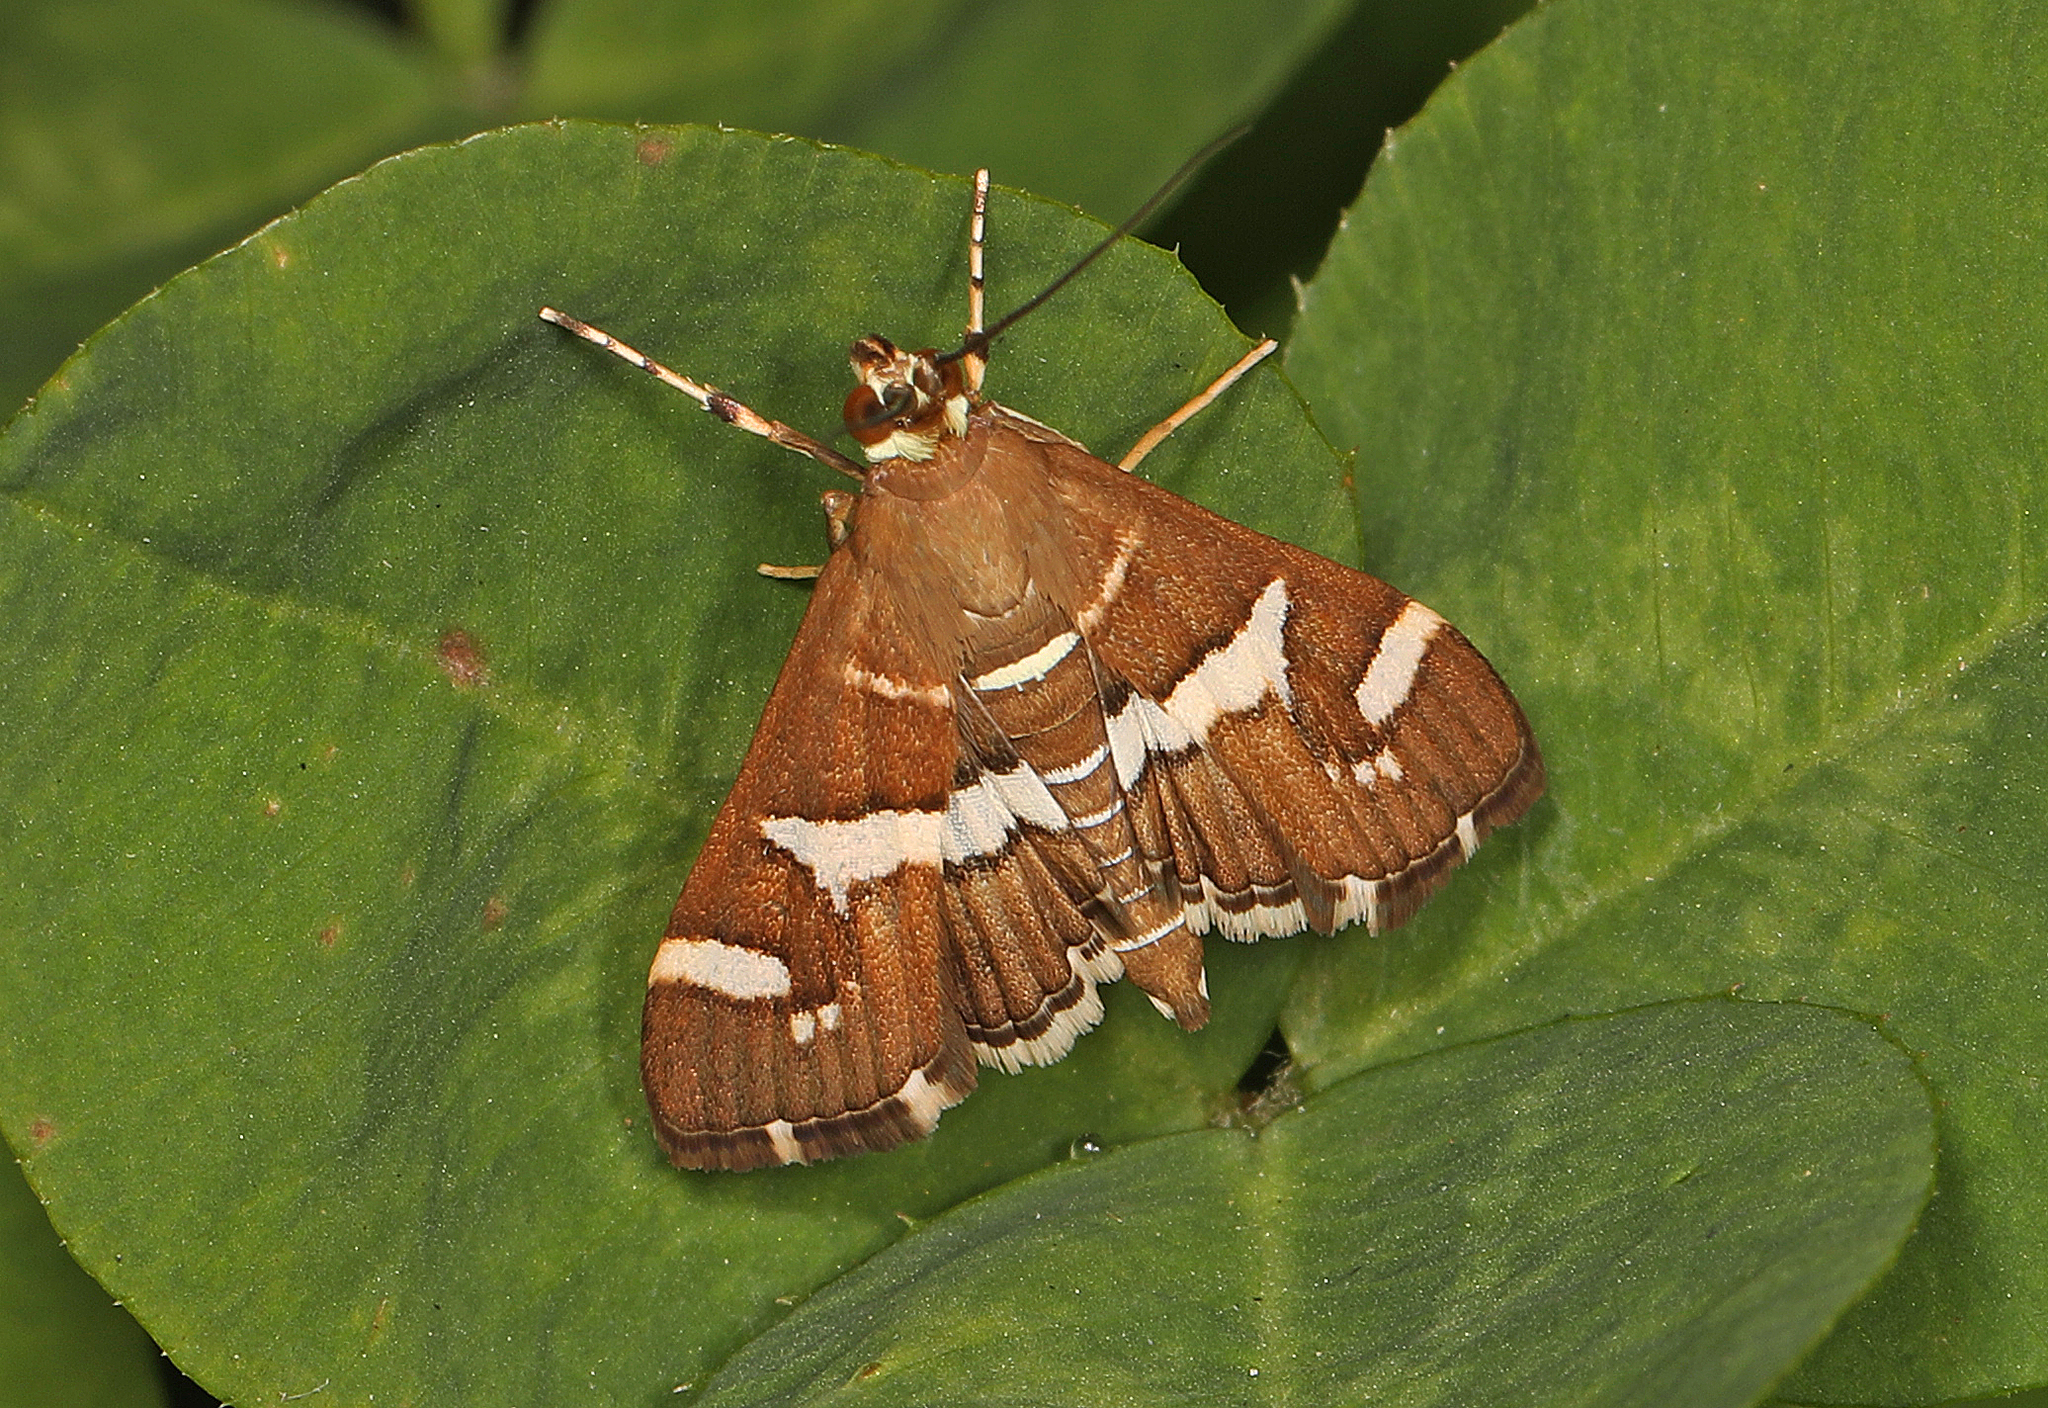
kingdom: Animalia
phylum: Arthropoda
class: Insecta
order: Lepidoptera
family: Crambidae
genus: Spoladea
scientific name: Spoladea recurvalis
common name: Beet webworm moth
